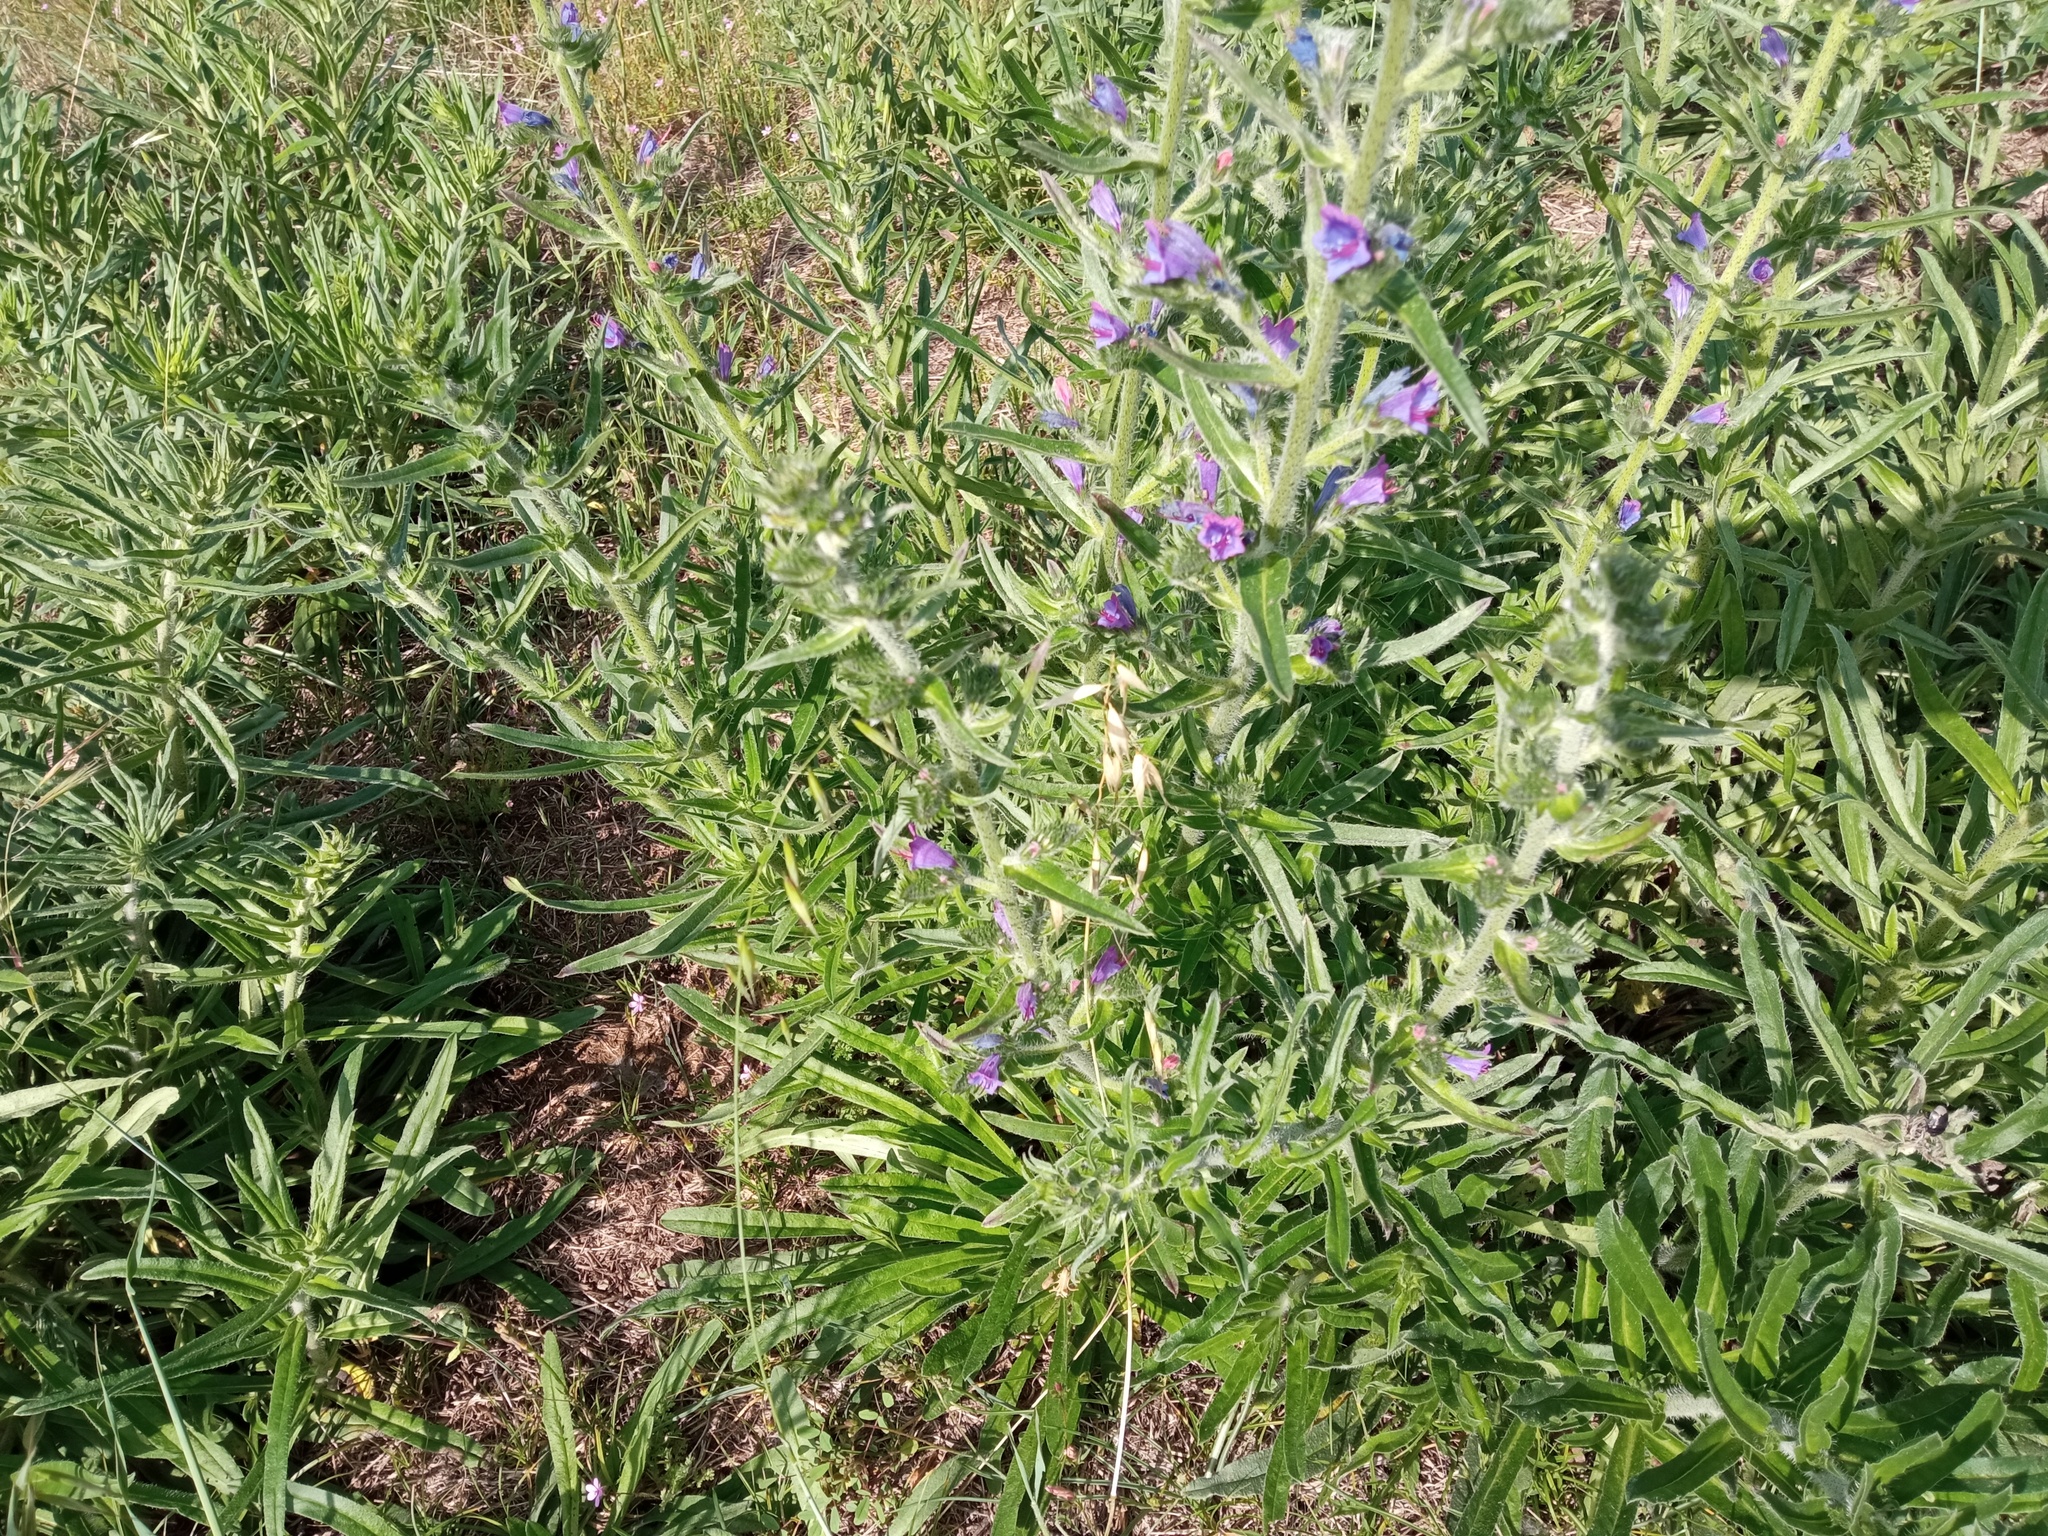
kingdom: Plantae
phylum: Tracheophyta
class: Magnoliopsida
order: Boraginales
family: Boraginaceae
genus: Echium
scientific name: Echium vulgare
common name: Common viper's bugloss
